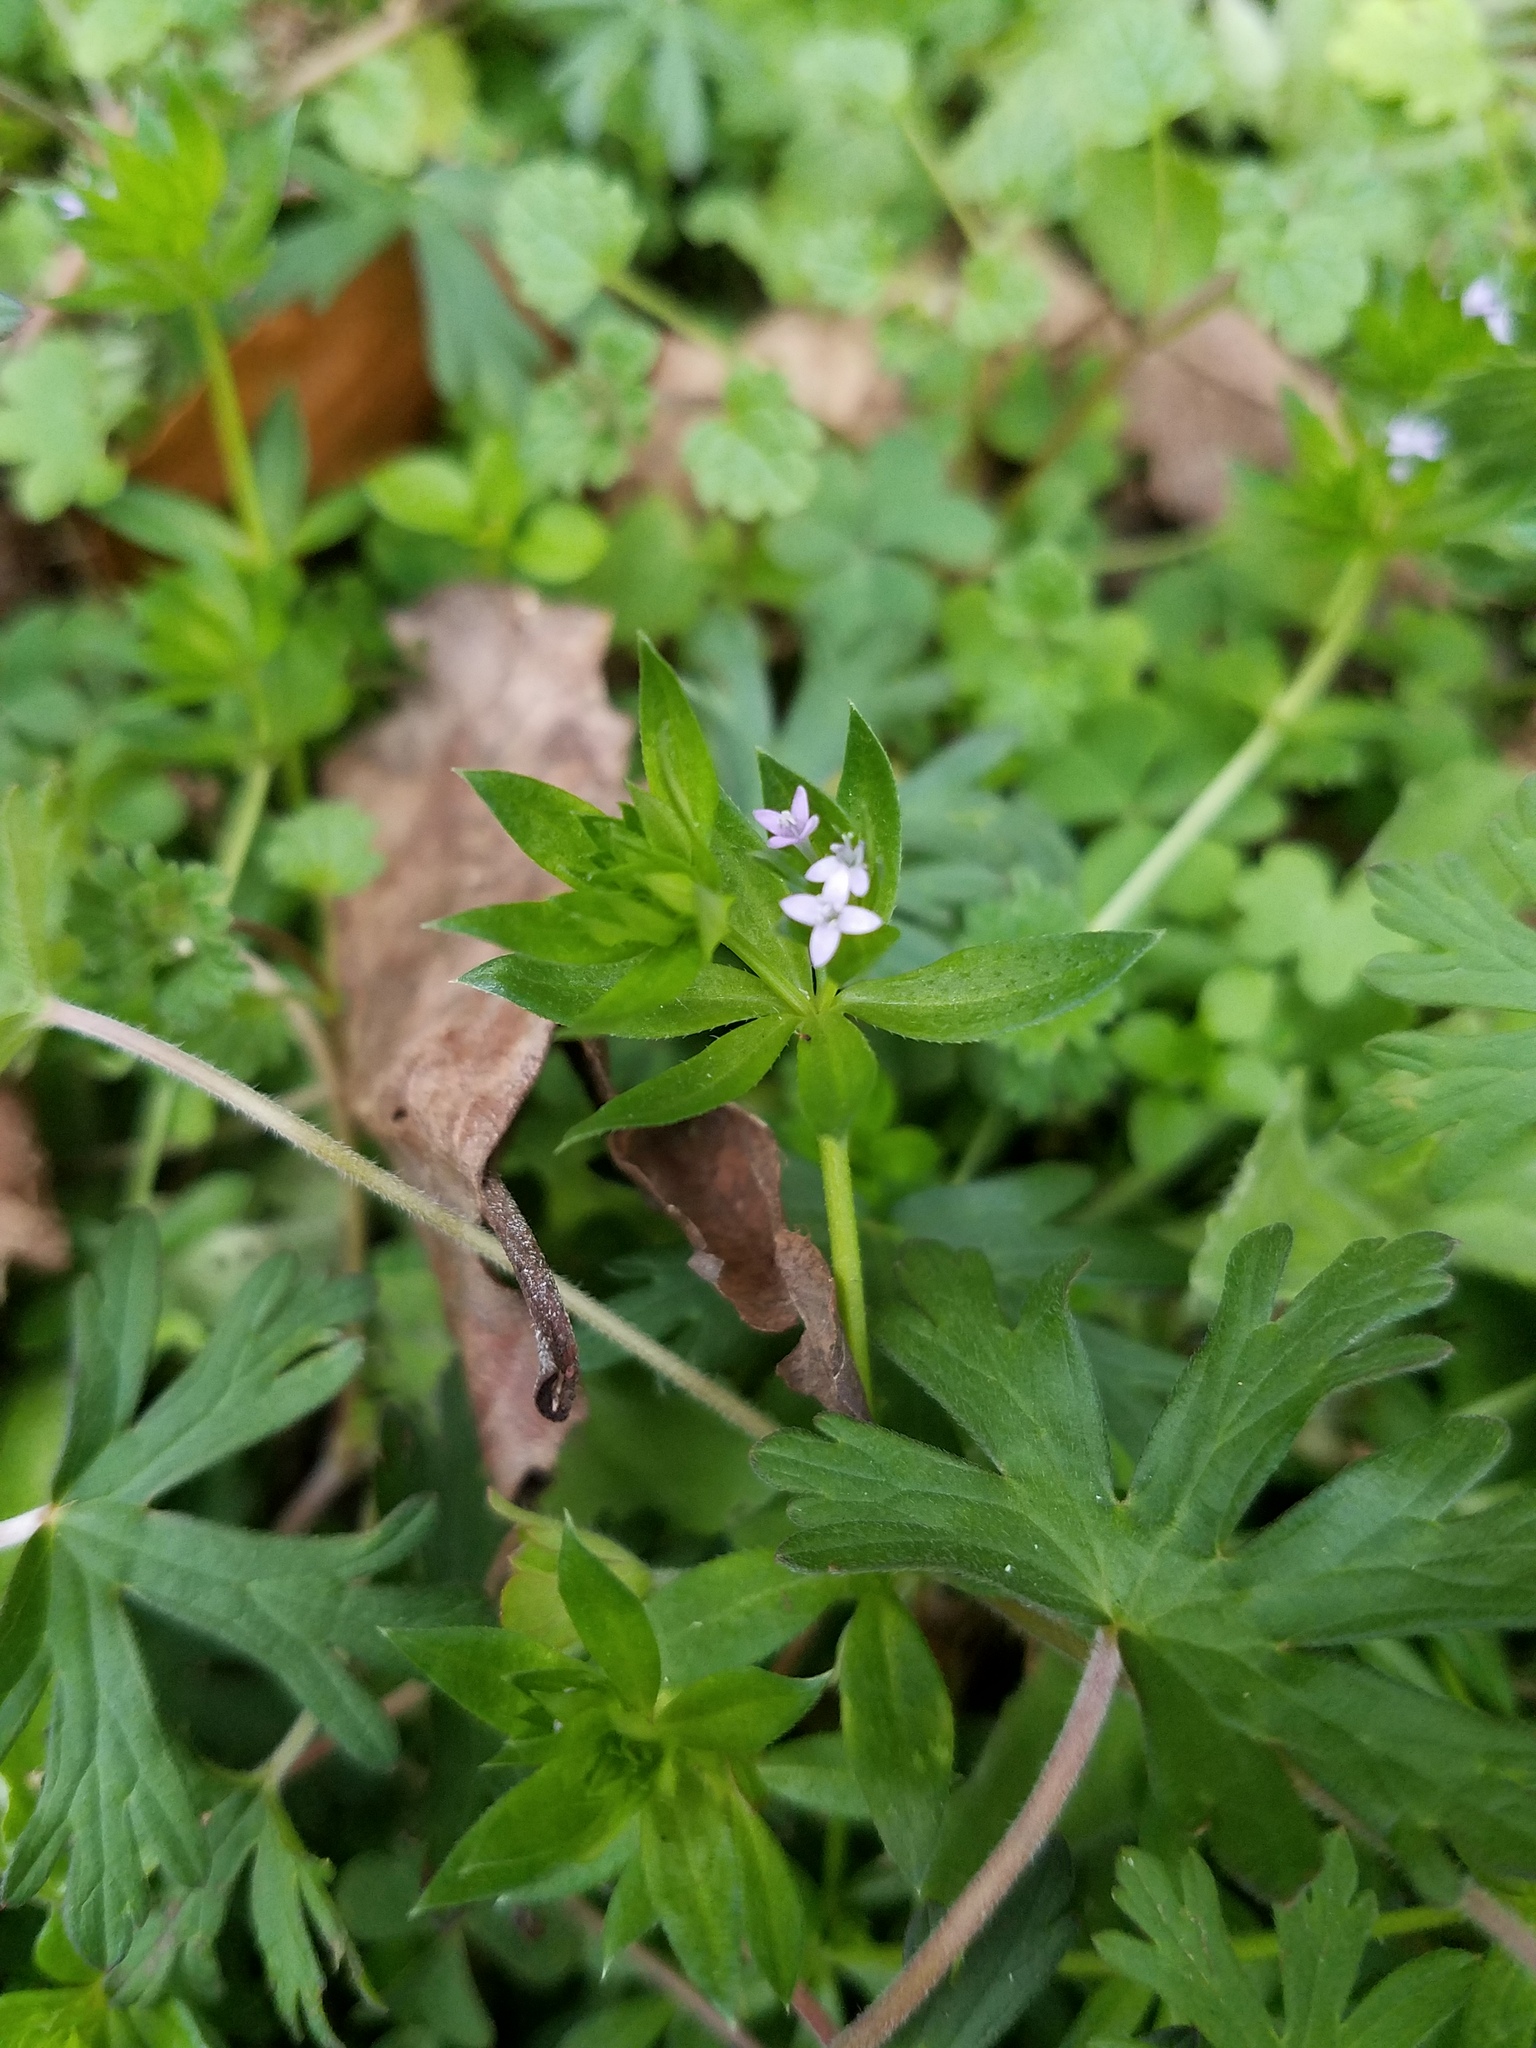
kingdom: Plantae
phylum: Tracheophyta
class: Magnoliopsida
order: Gentianales
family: Rubiaceae
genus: Sherardia
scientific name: Sherardia arvensis
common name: Field madder
